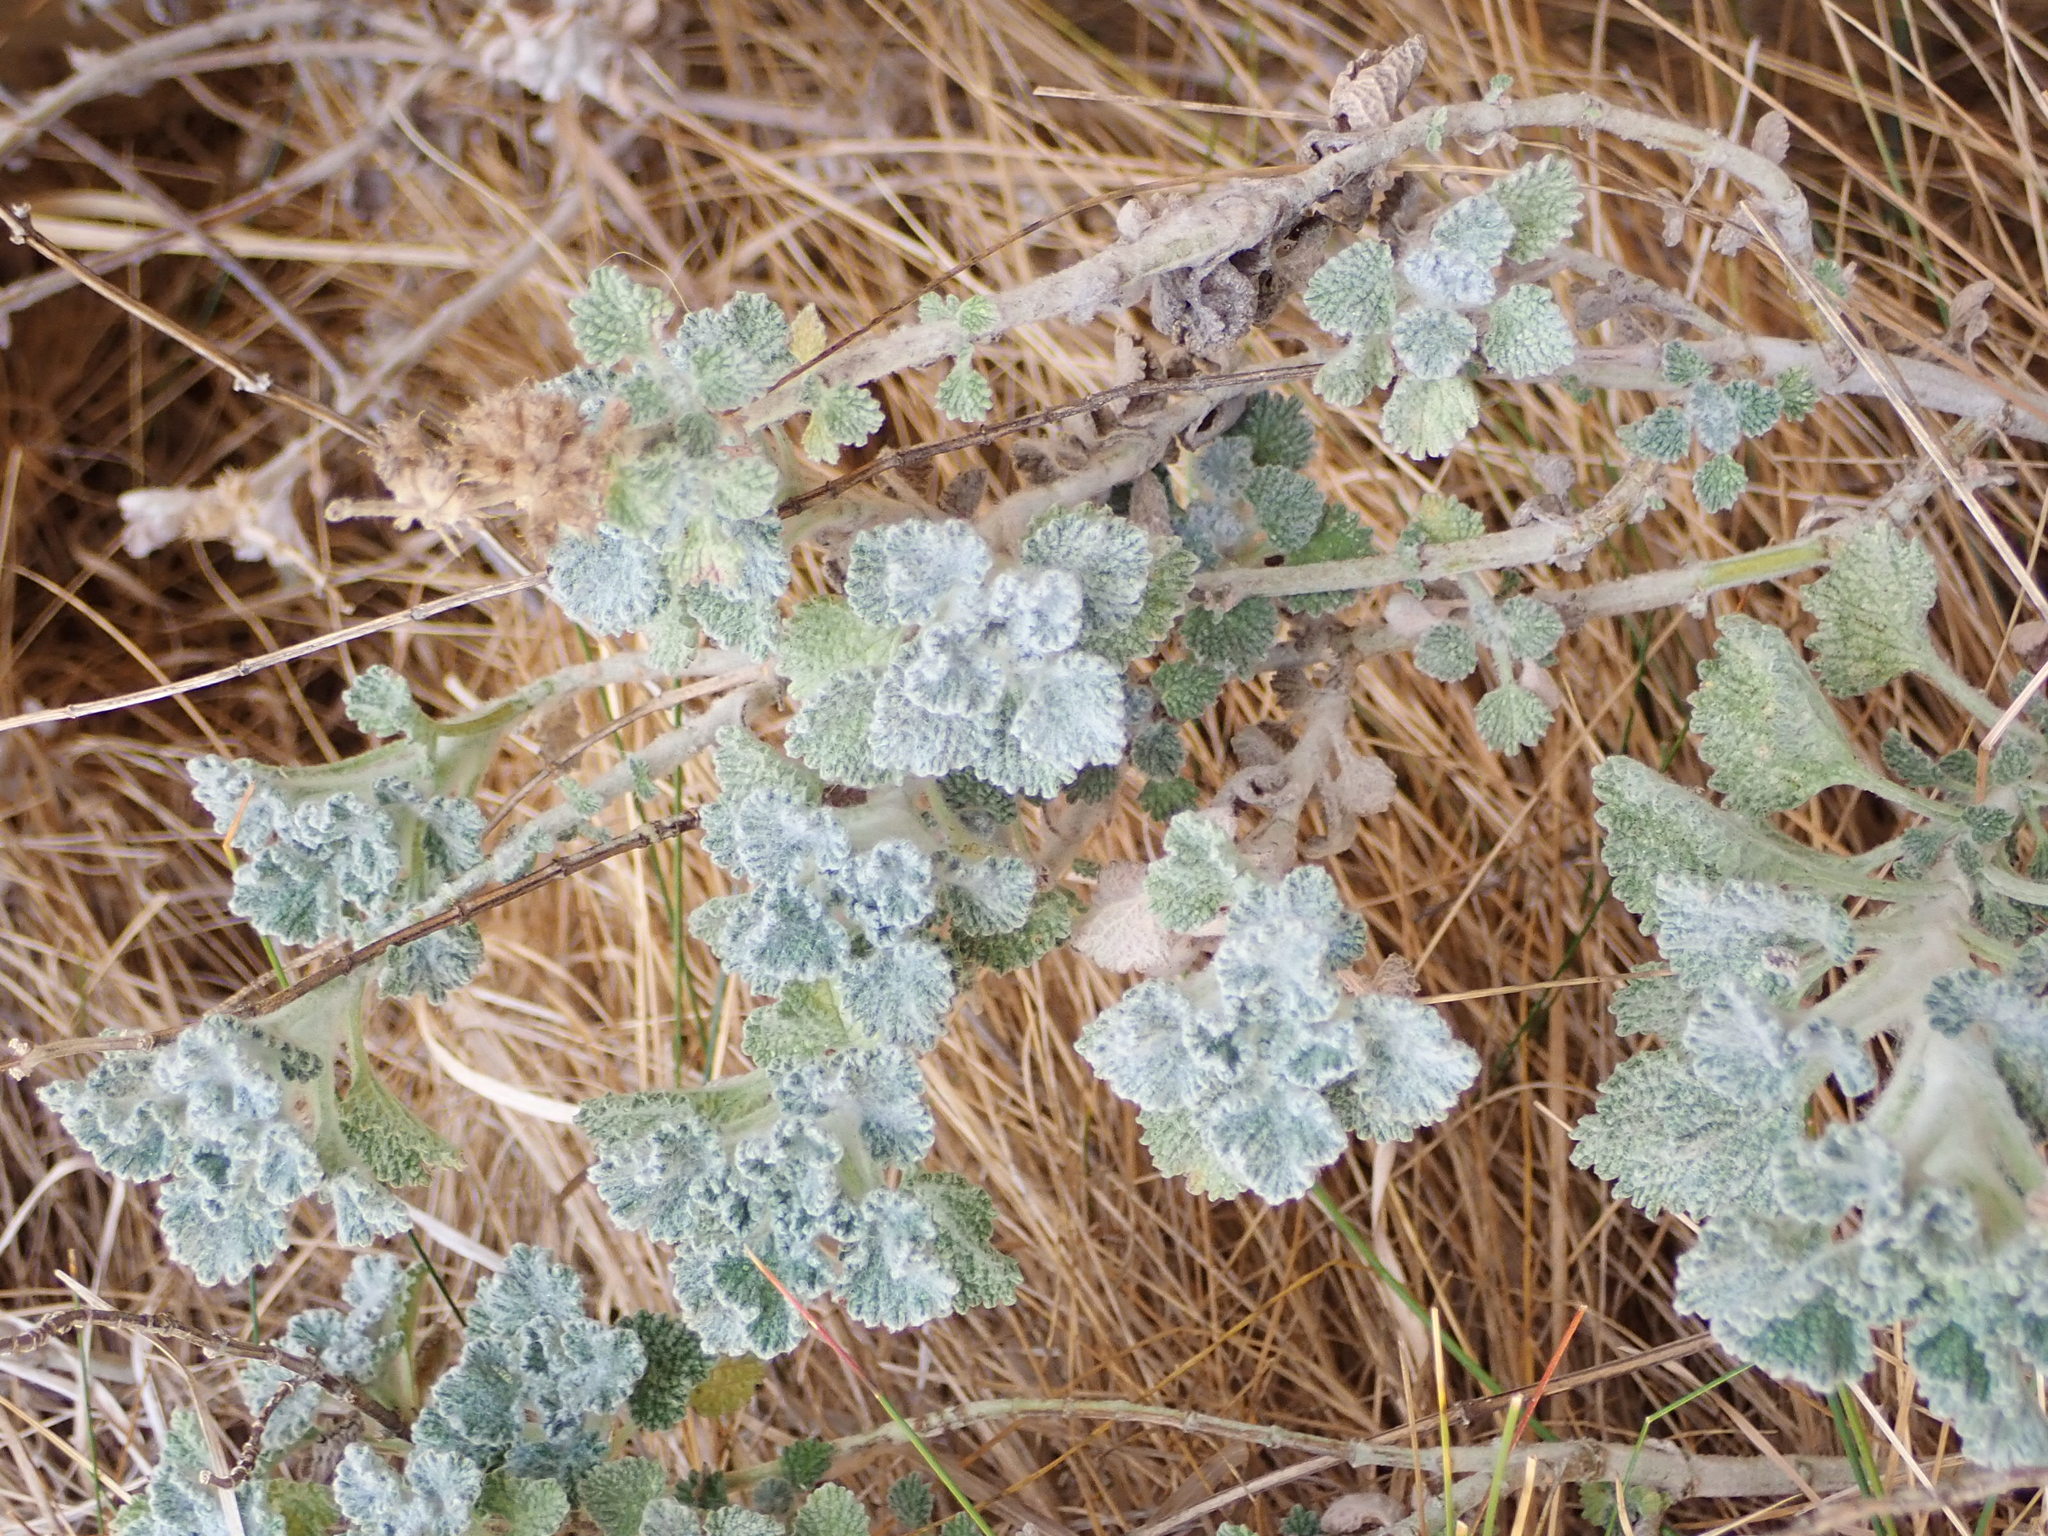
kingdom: Plantae
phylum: Tracheophyta
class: Magnoliopsida
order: Lamiales
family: Lamiaceae
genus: Marrubium
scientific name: Marrubium vulgare
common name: Horehound
